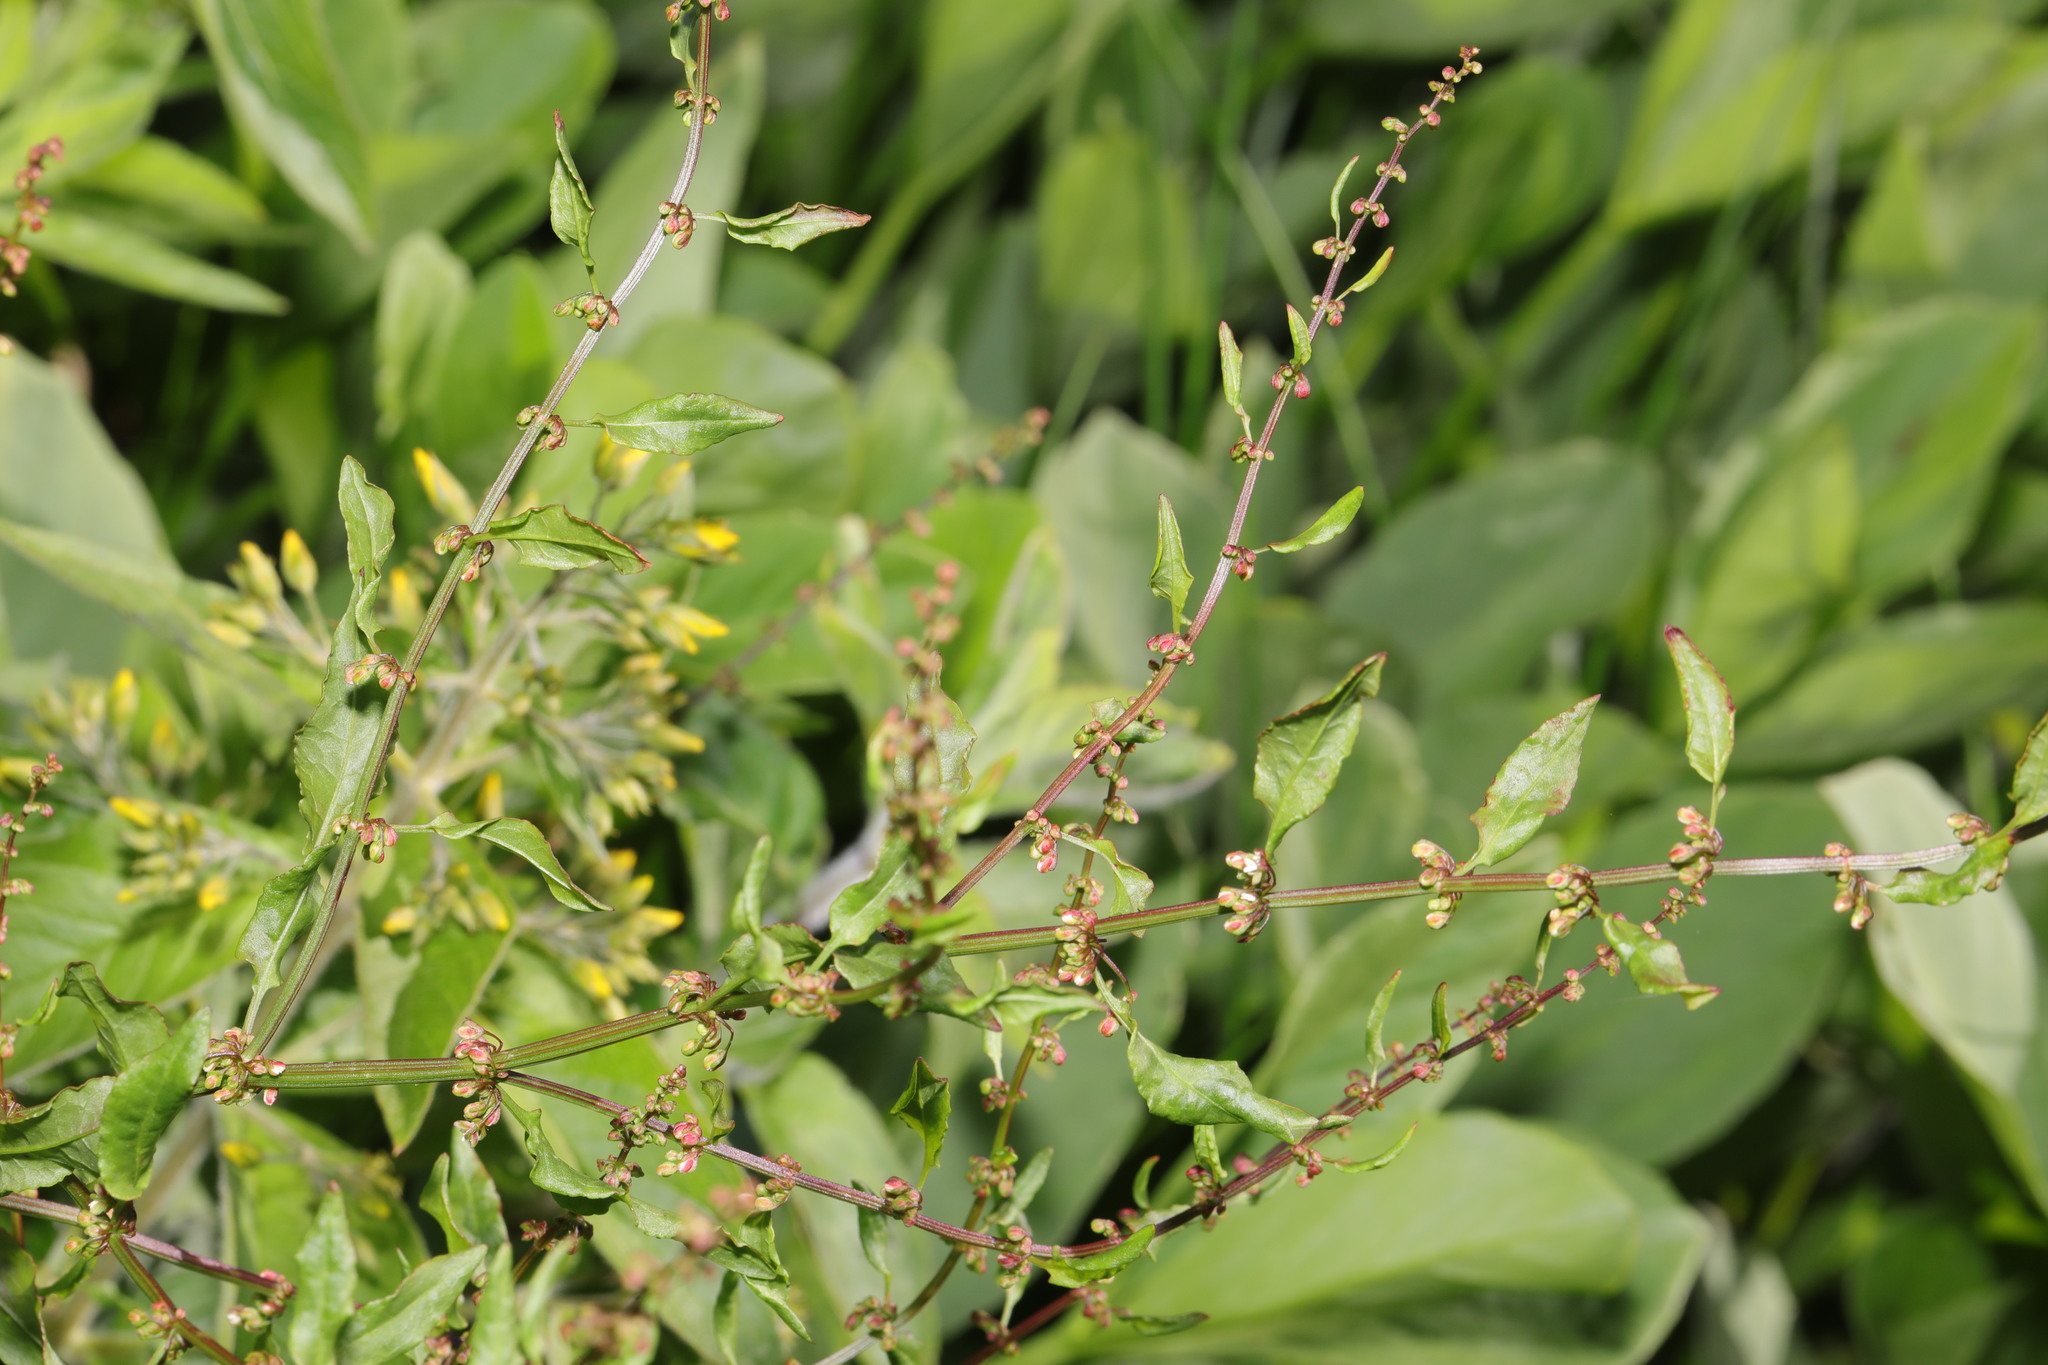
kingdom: Plantae
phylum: Tracheophyta
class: Magnoliopsida
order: Caryophyllales
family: Polygonaceae
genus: Rumex
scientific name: Rumex conglomeratus
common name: Clustered dock
